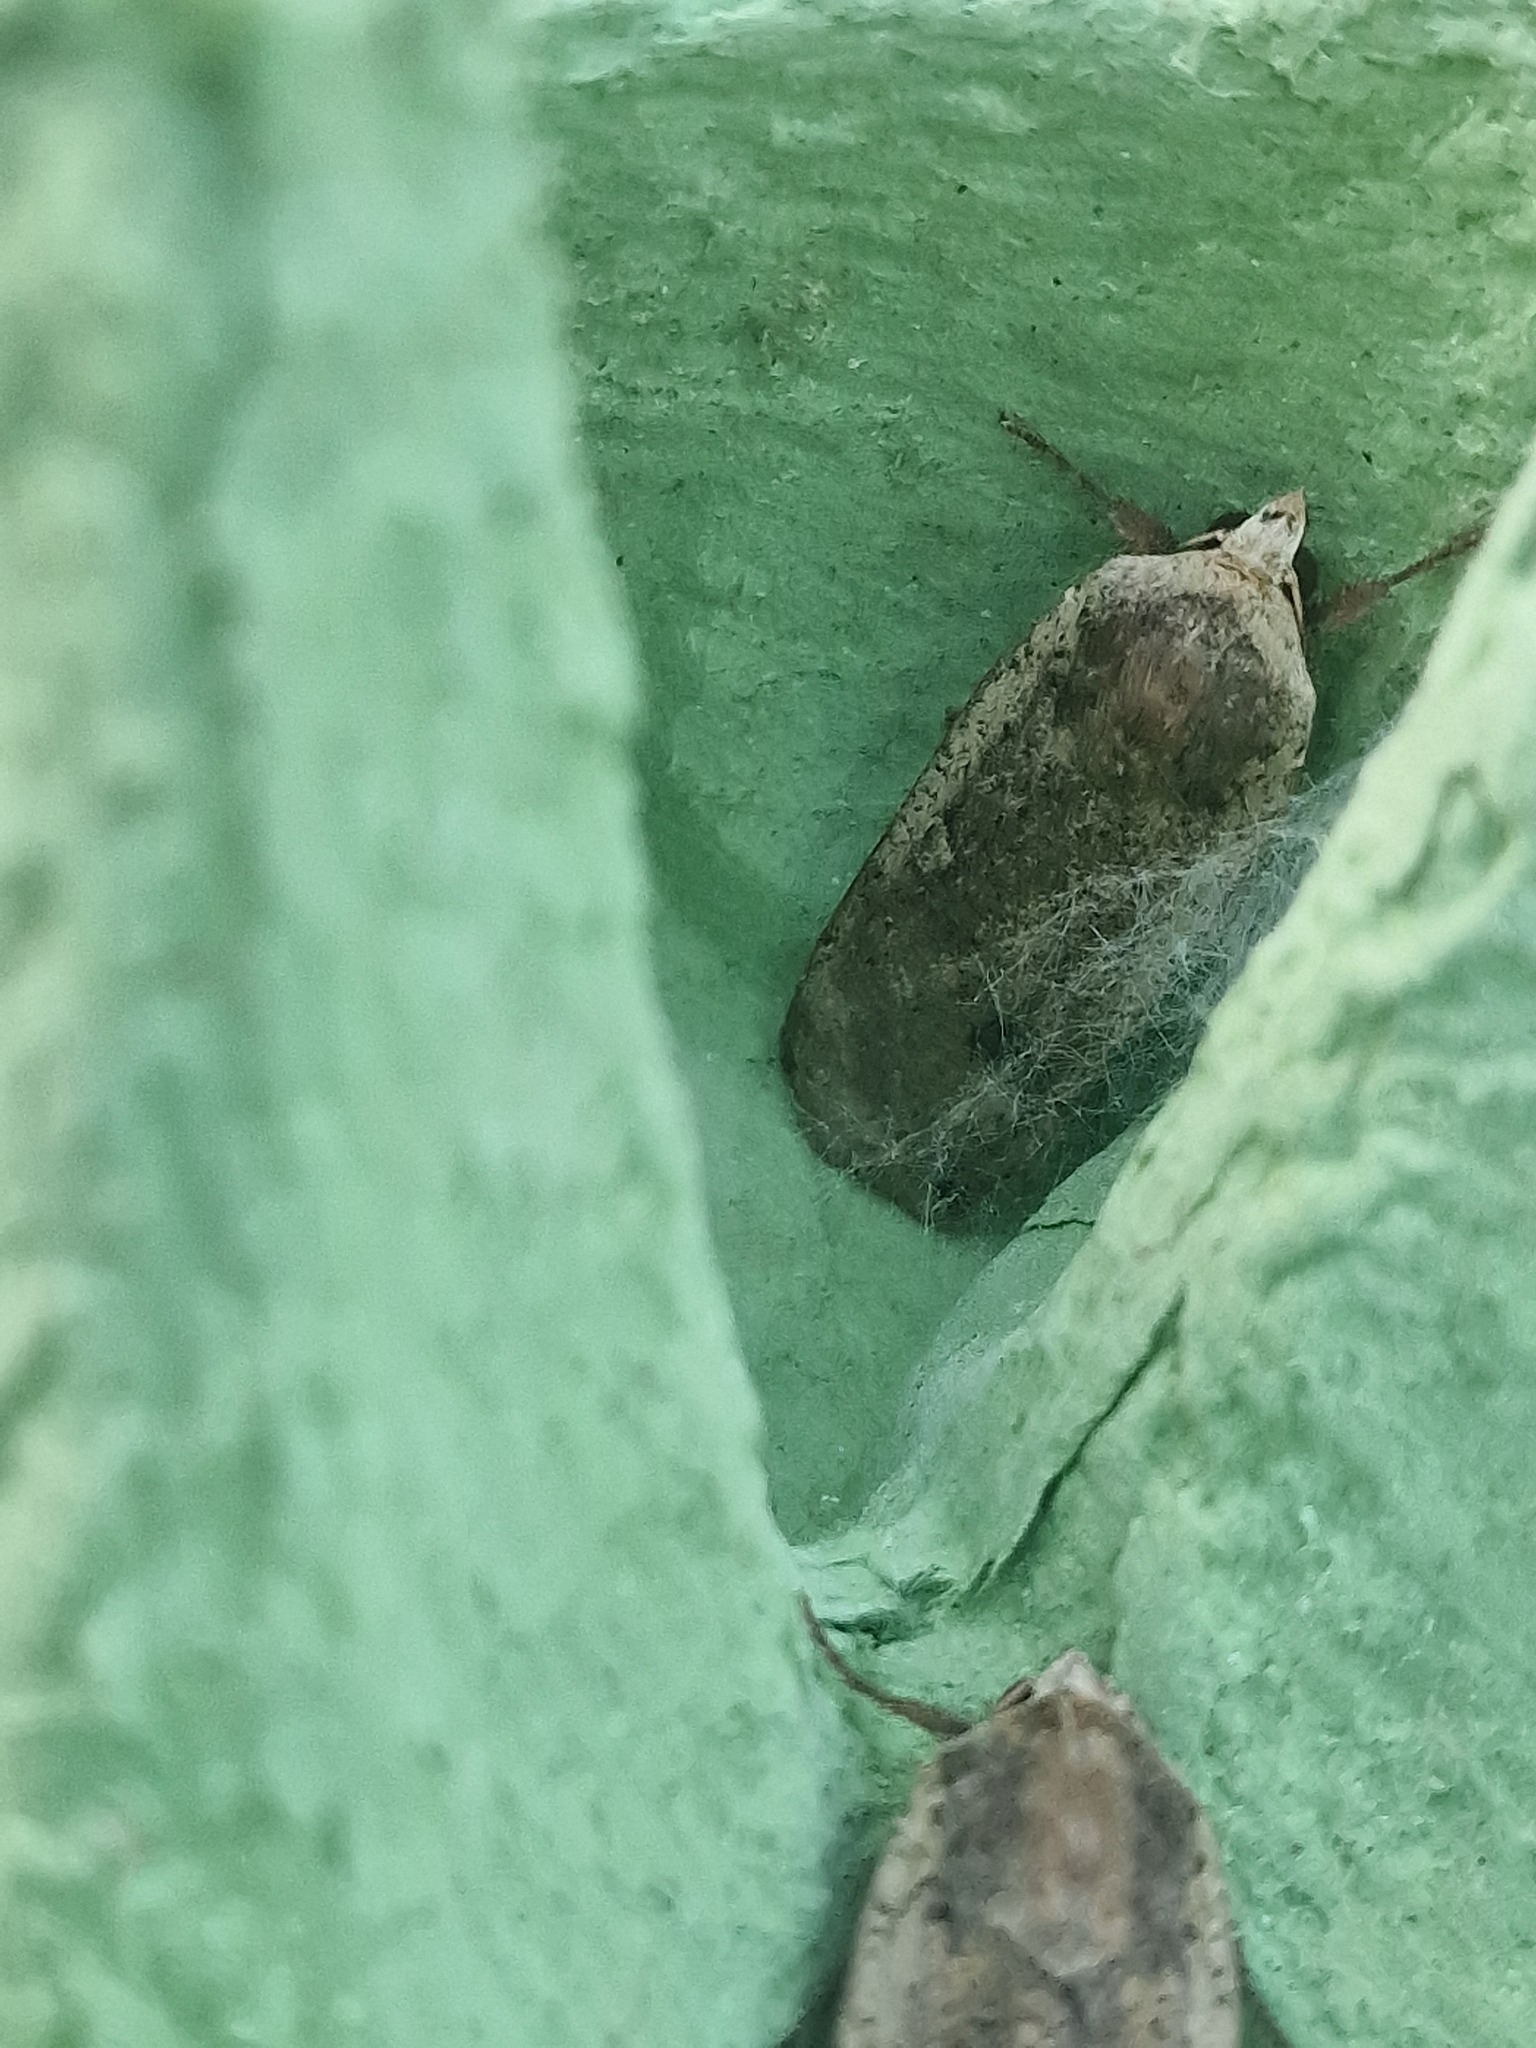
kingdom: Animalia
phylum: Arthropoda
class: Insecta
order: Lepidoptera
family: Noctuidae
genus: Noctua
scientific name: Noctua pronuba
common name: Large yellow underwing
